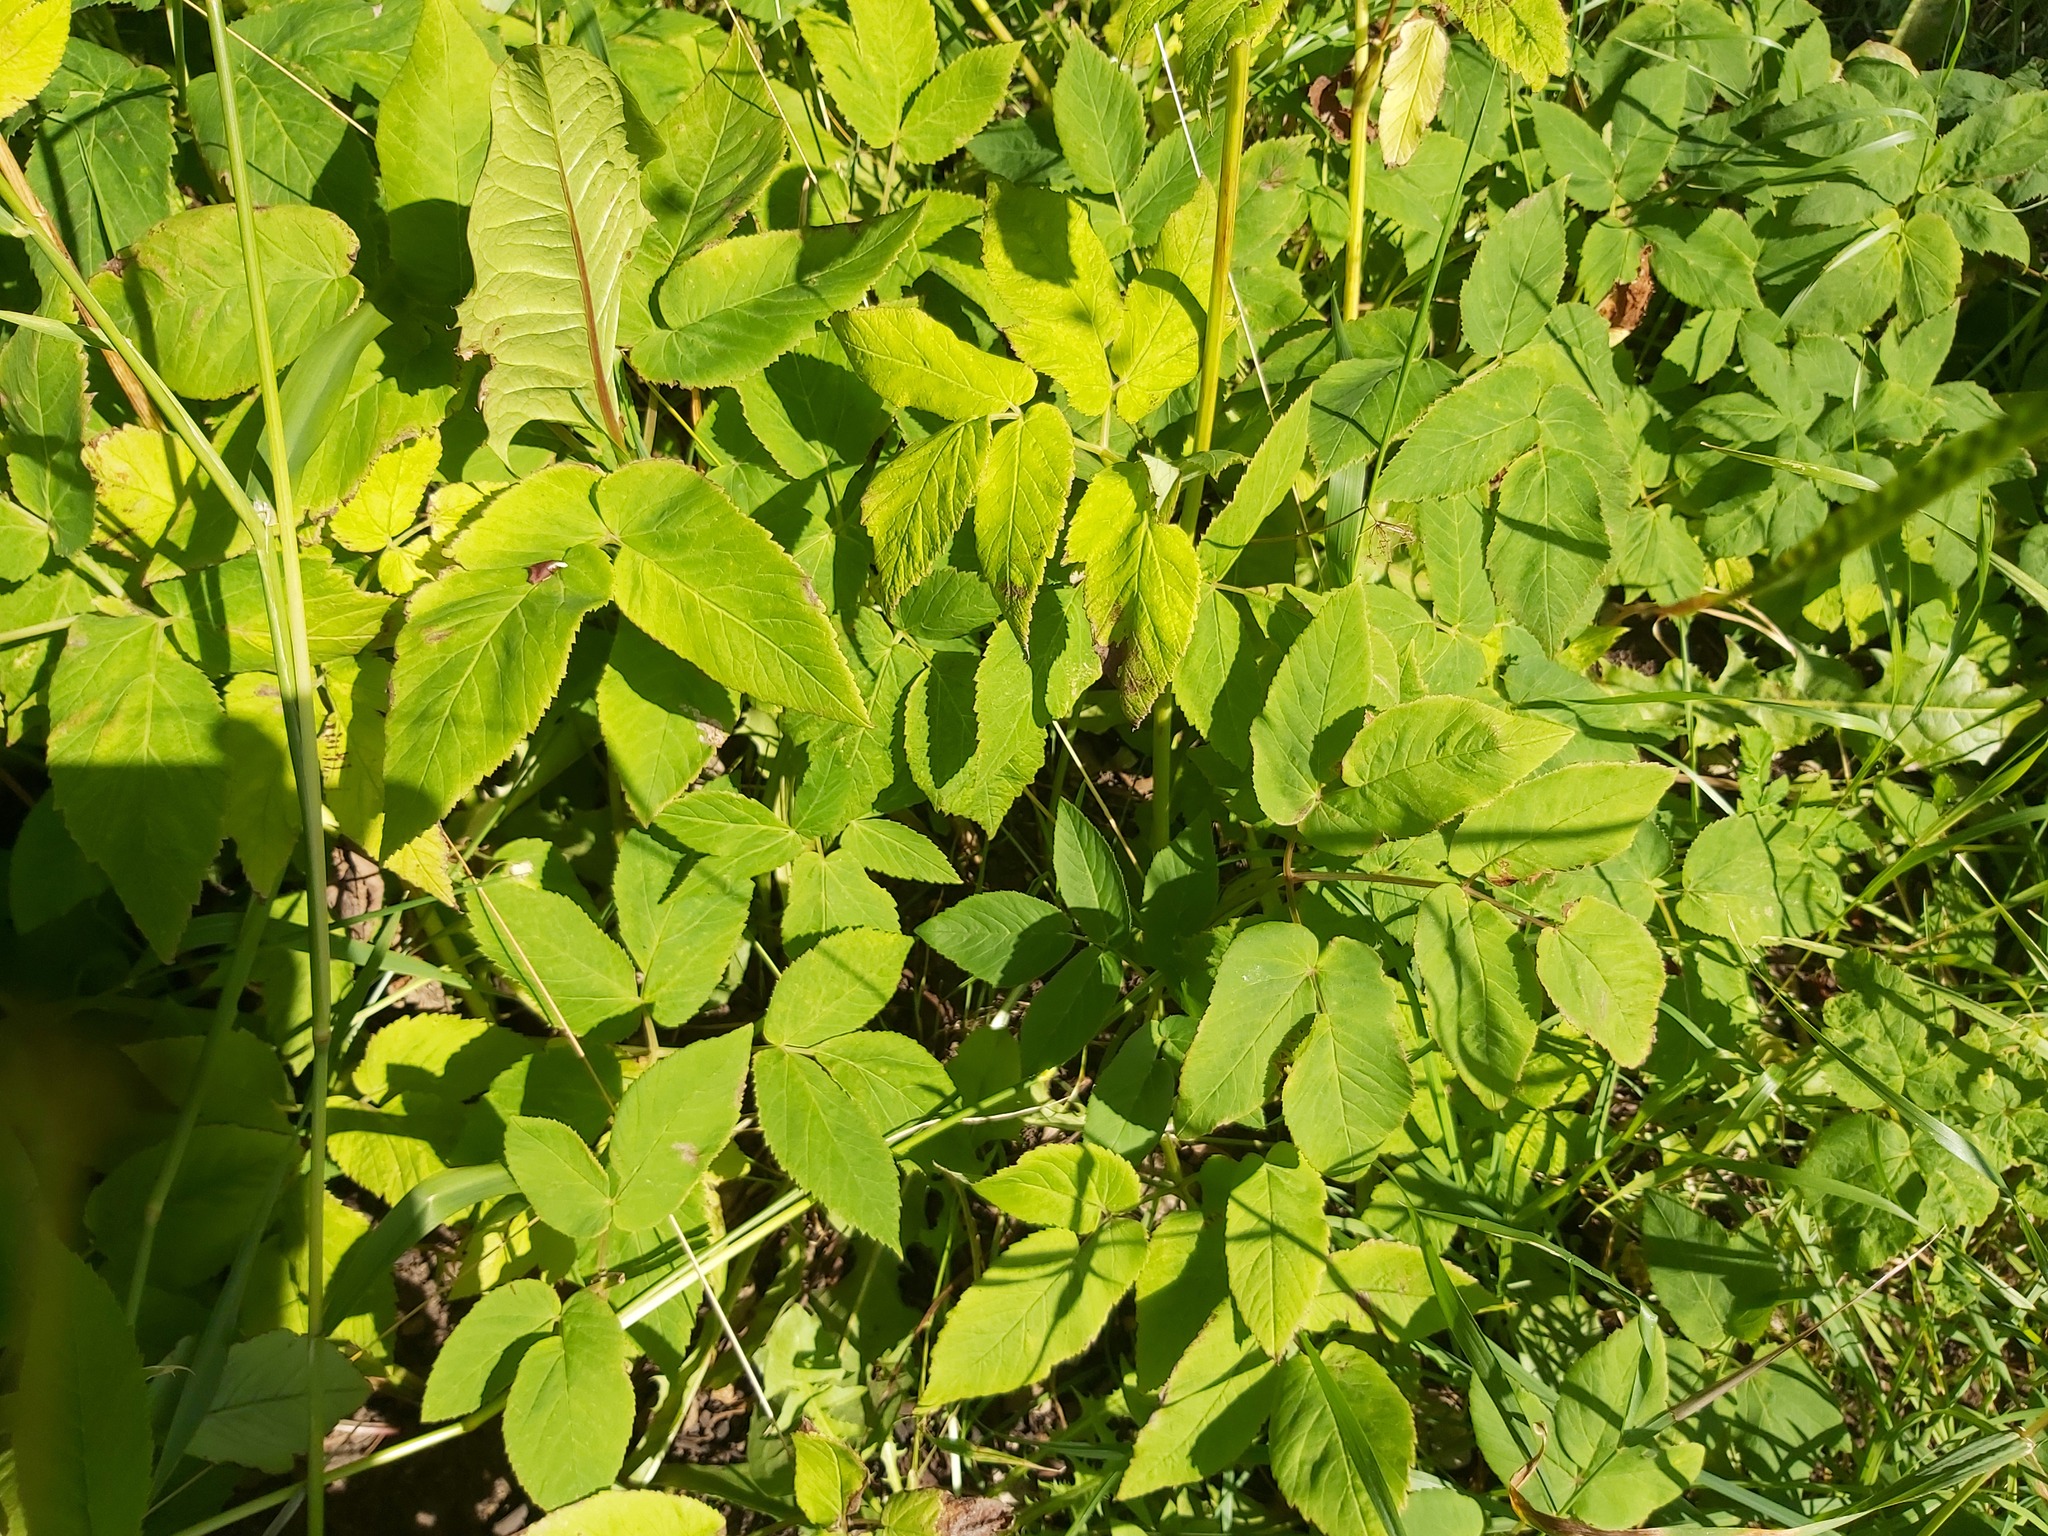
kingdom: Plantae
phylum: Tracheophyta
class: Magnoliopsida
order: Apiales
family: Apiaceae
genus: Aegopodium
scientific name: Aegopodium podagraria
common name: Ground-elder
